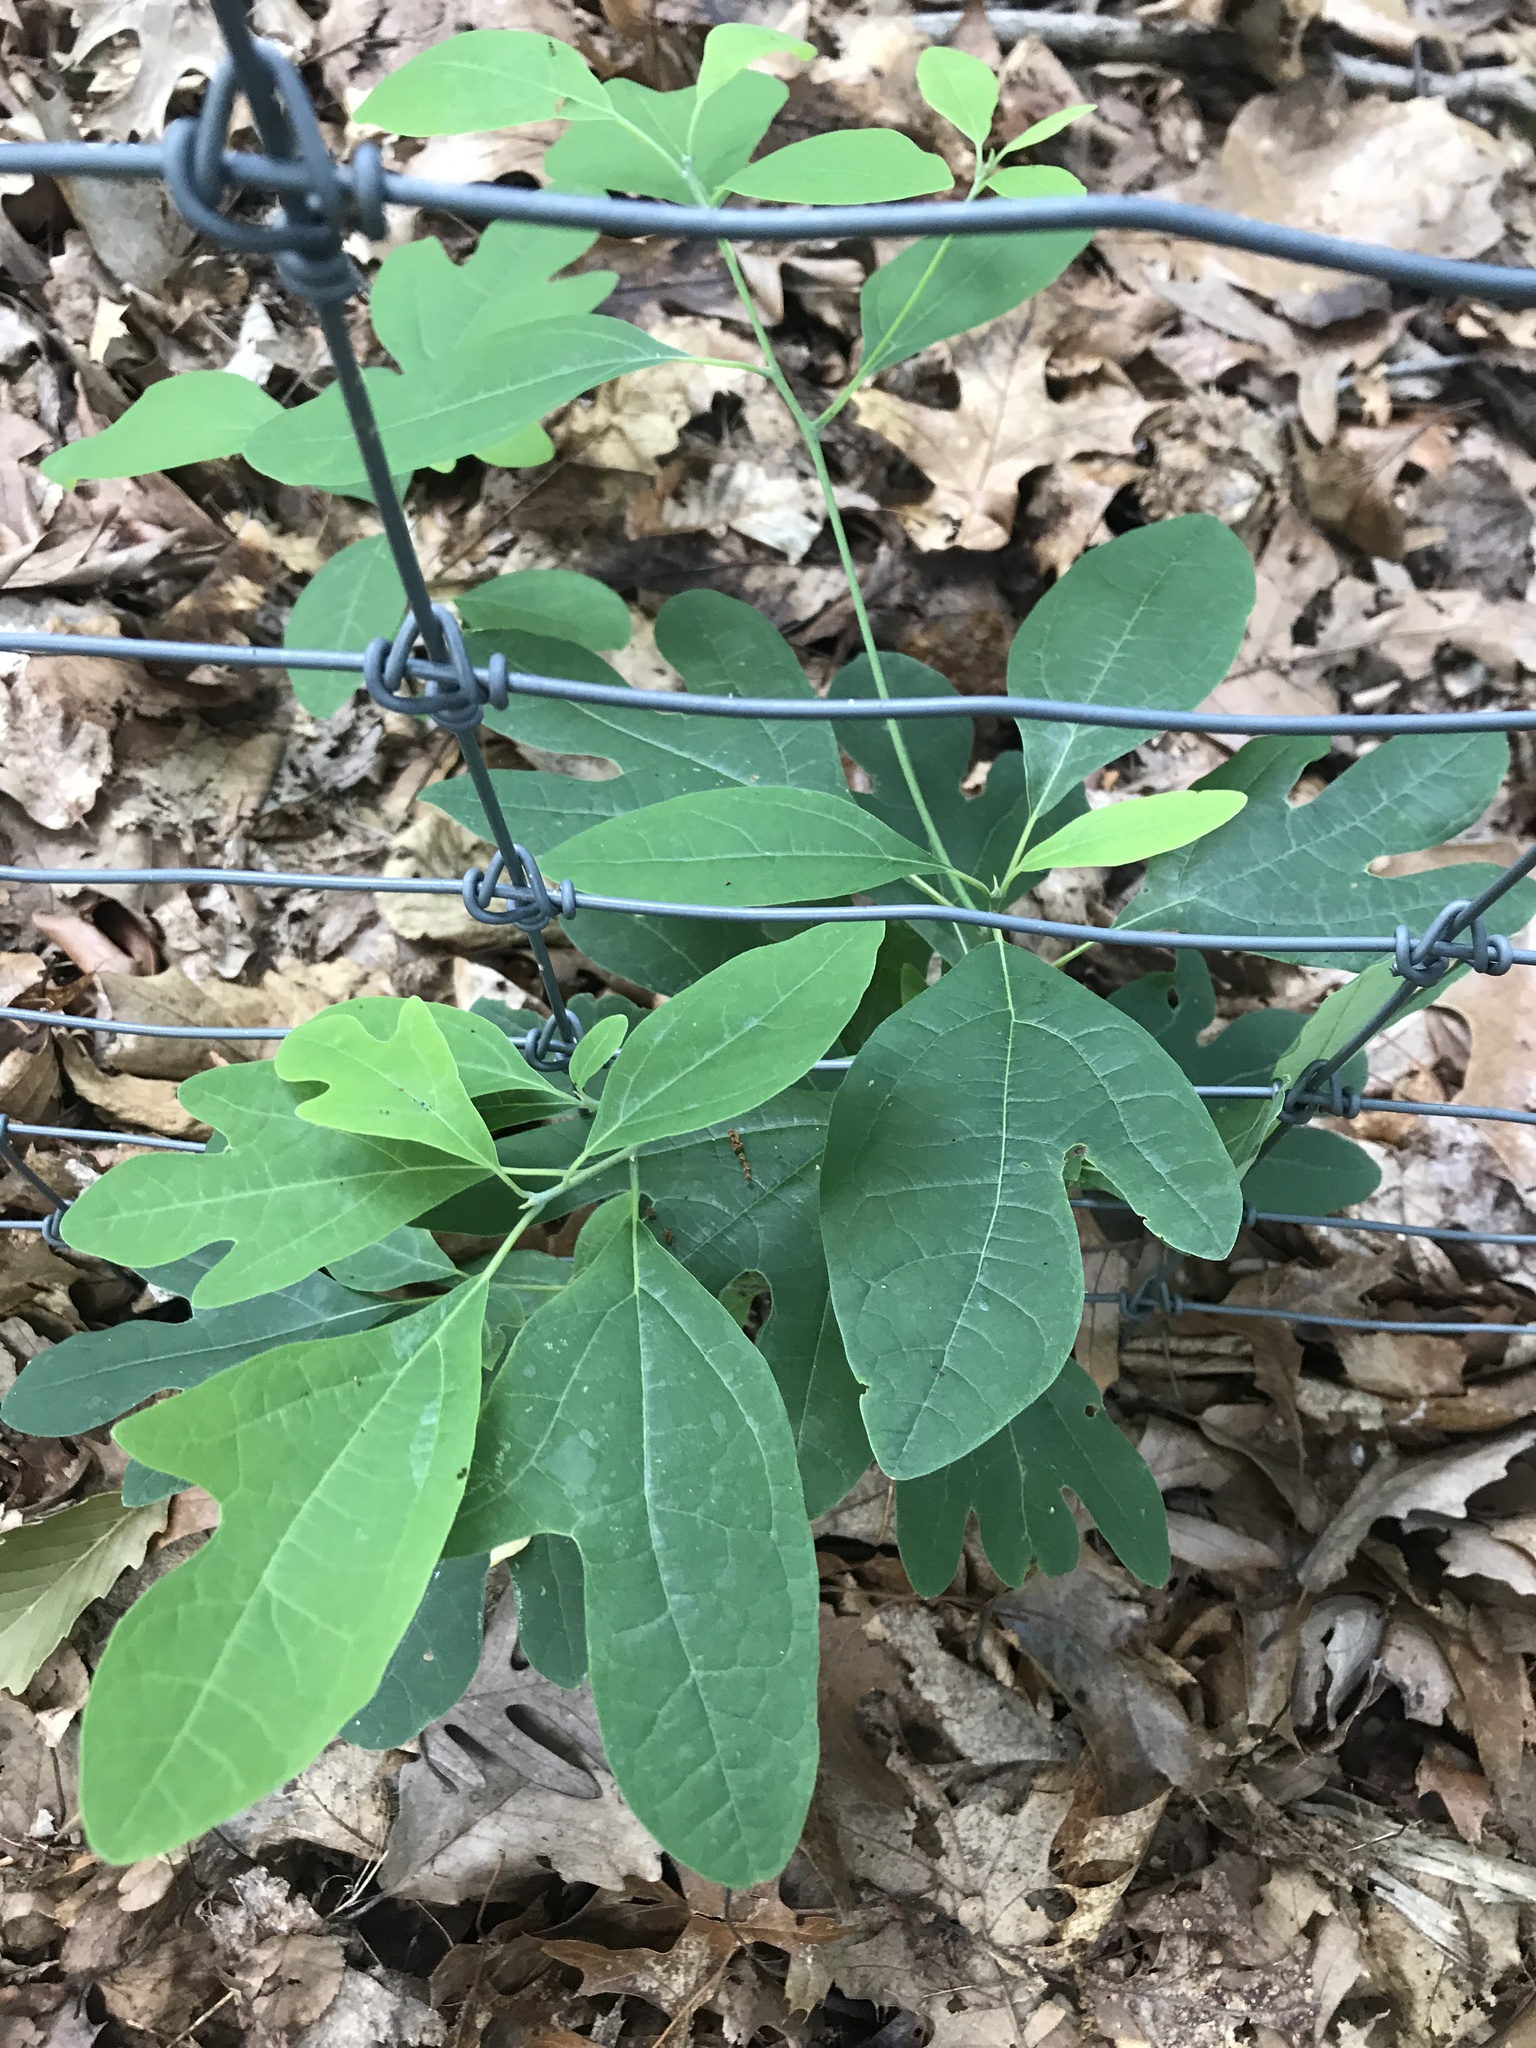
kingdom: Plantae
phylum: Tracheophyta
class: Magnoliopsida
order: Laurales
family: Lauraceae
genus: Sassafras
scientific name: Sassafras albidum
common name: Sassafras
